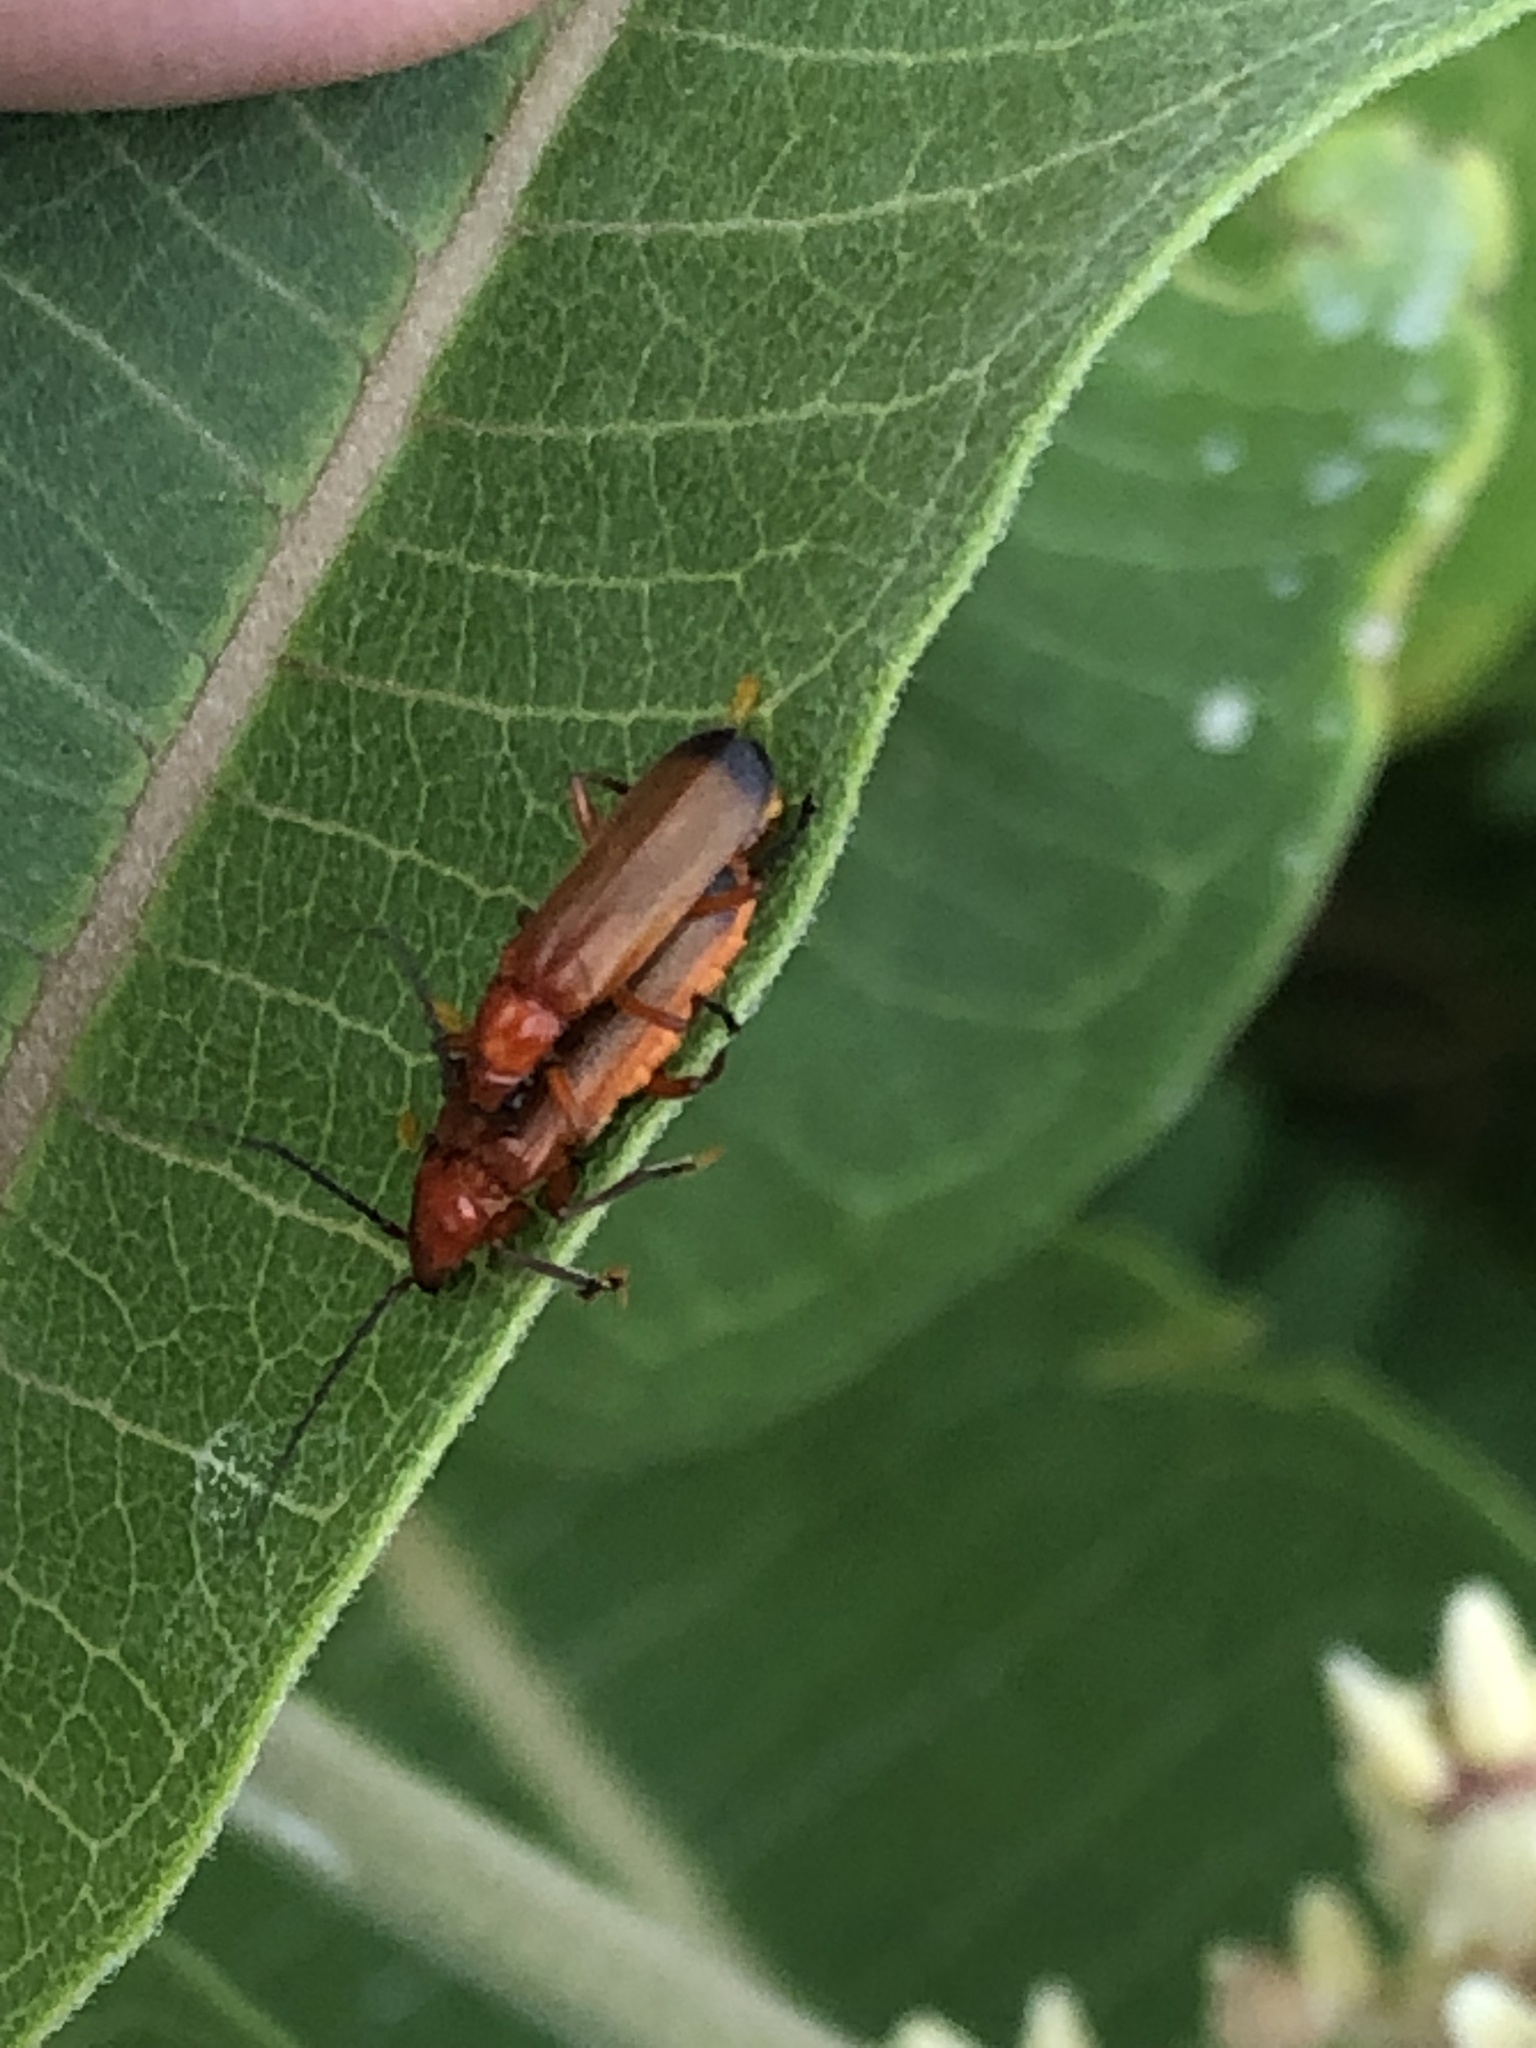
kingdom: Animalia
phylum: Arthropoda
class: Insecta
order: Coleoptera
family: Cantharidae
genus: Rhagonycha
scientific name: Rhagonycha fulva
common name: Common red soldier beetle
